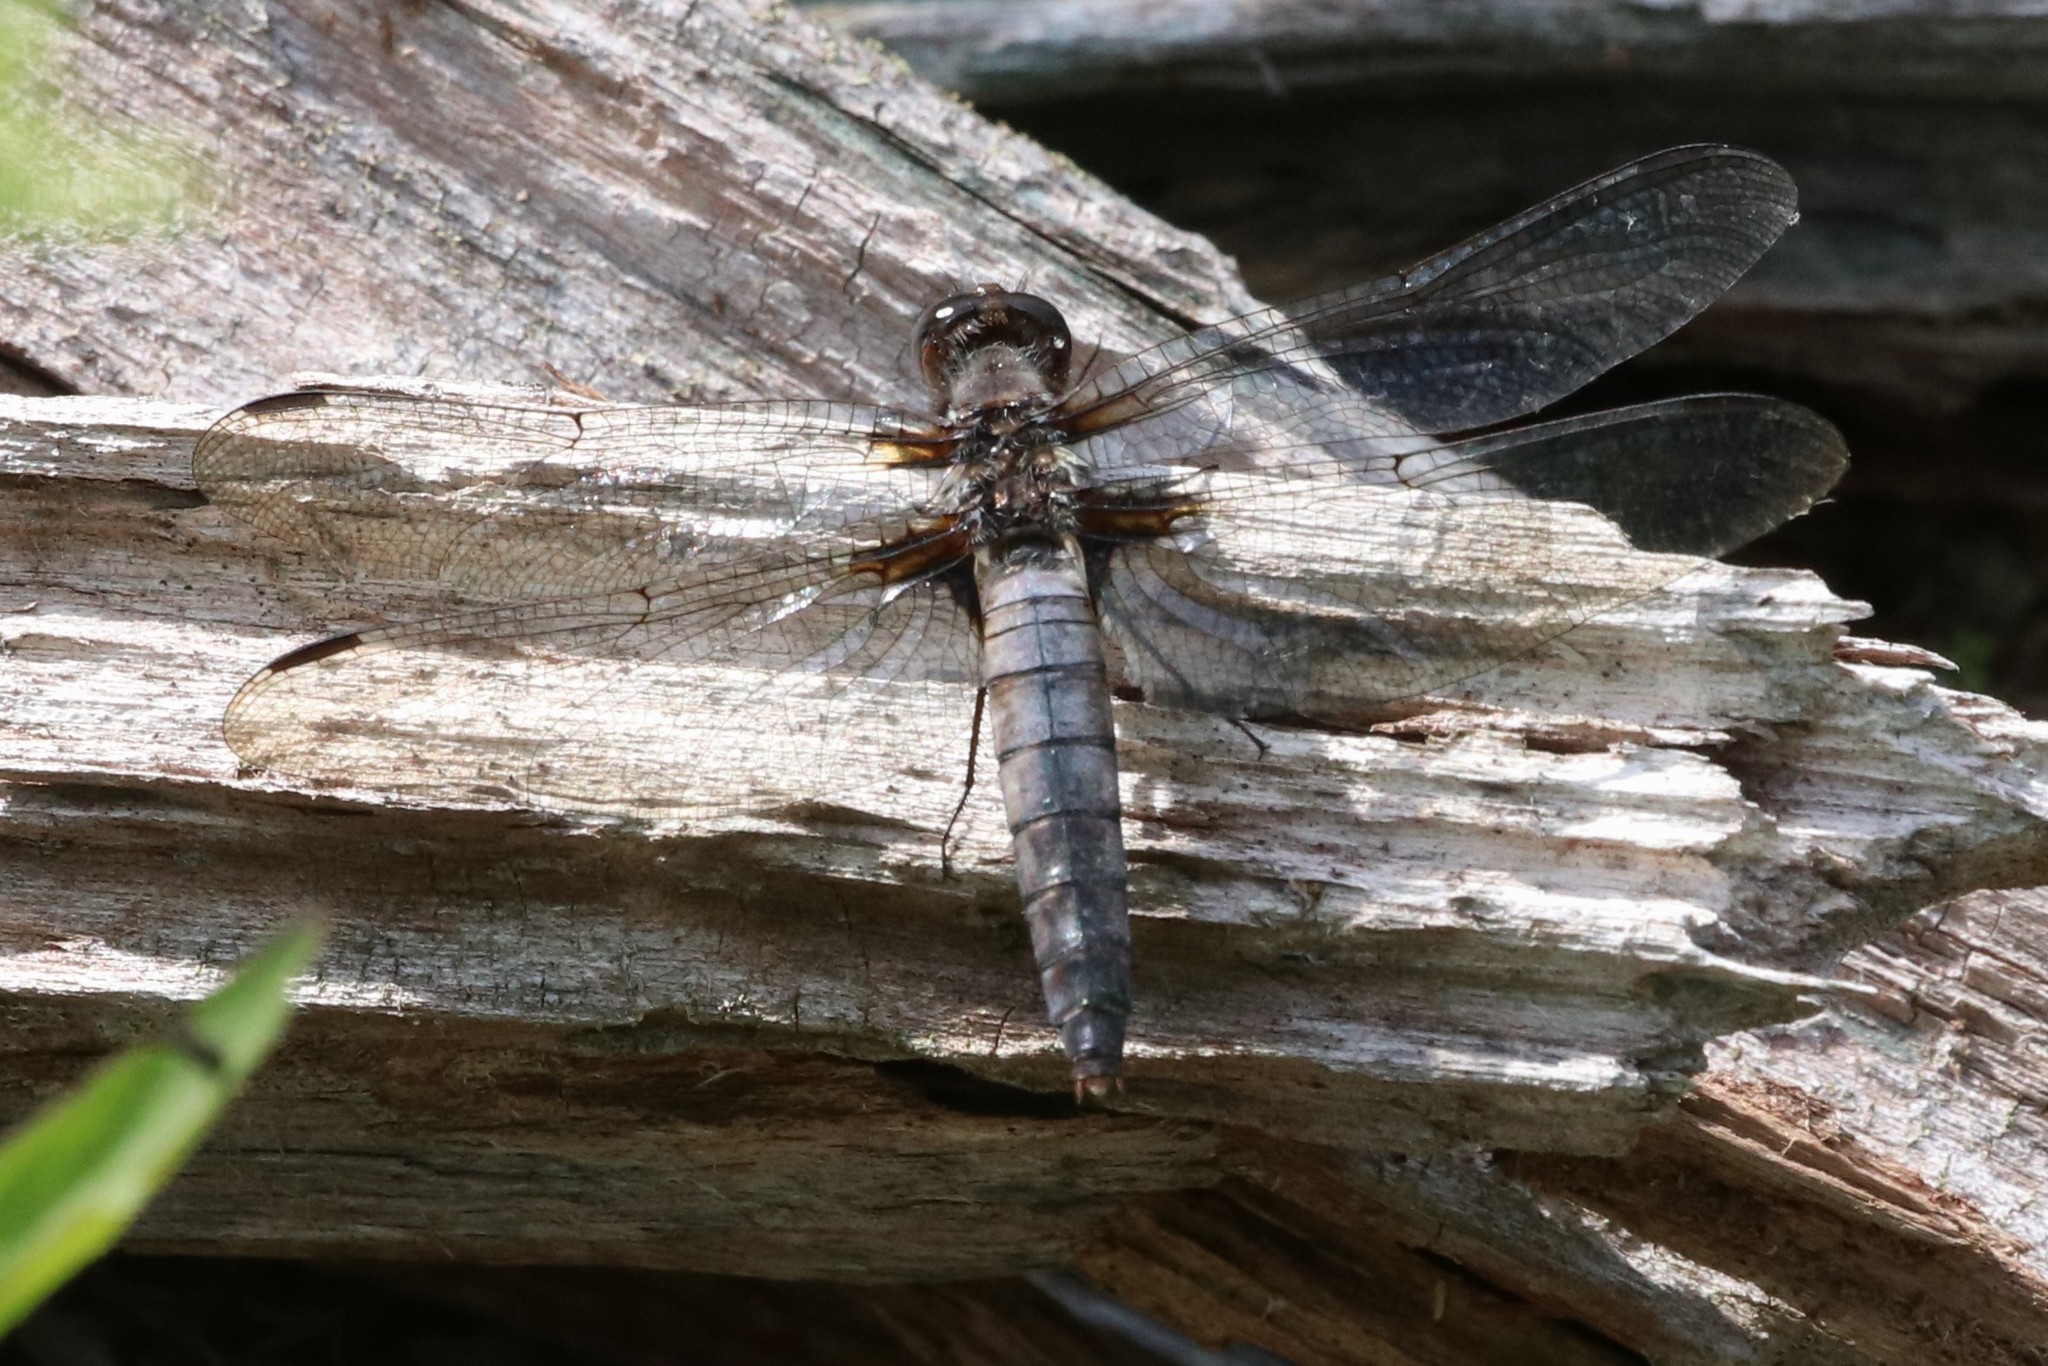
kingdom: Animalia
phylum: Arthropoda
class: Insecta
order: Odonata
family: Libellulidae
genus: Ladona
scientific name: Ladona julia
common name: Chalk-fronted corporal
